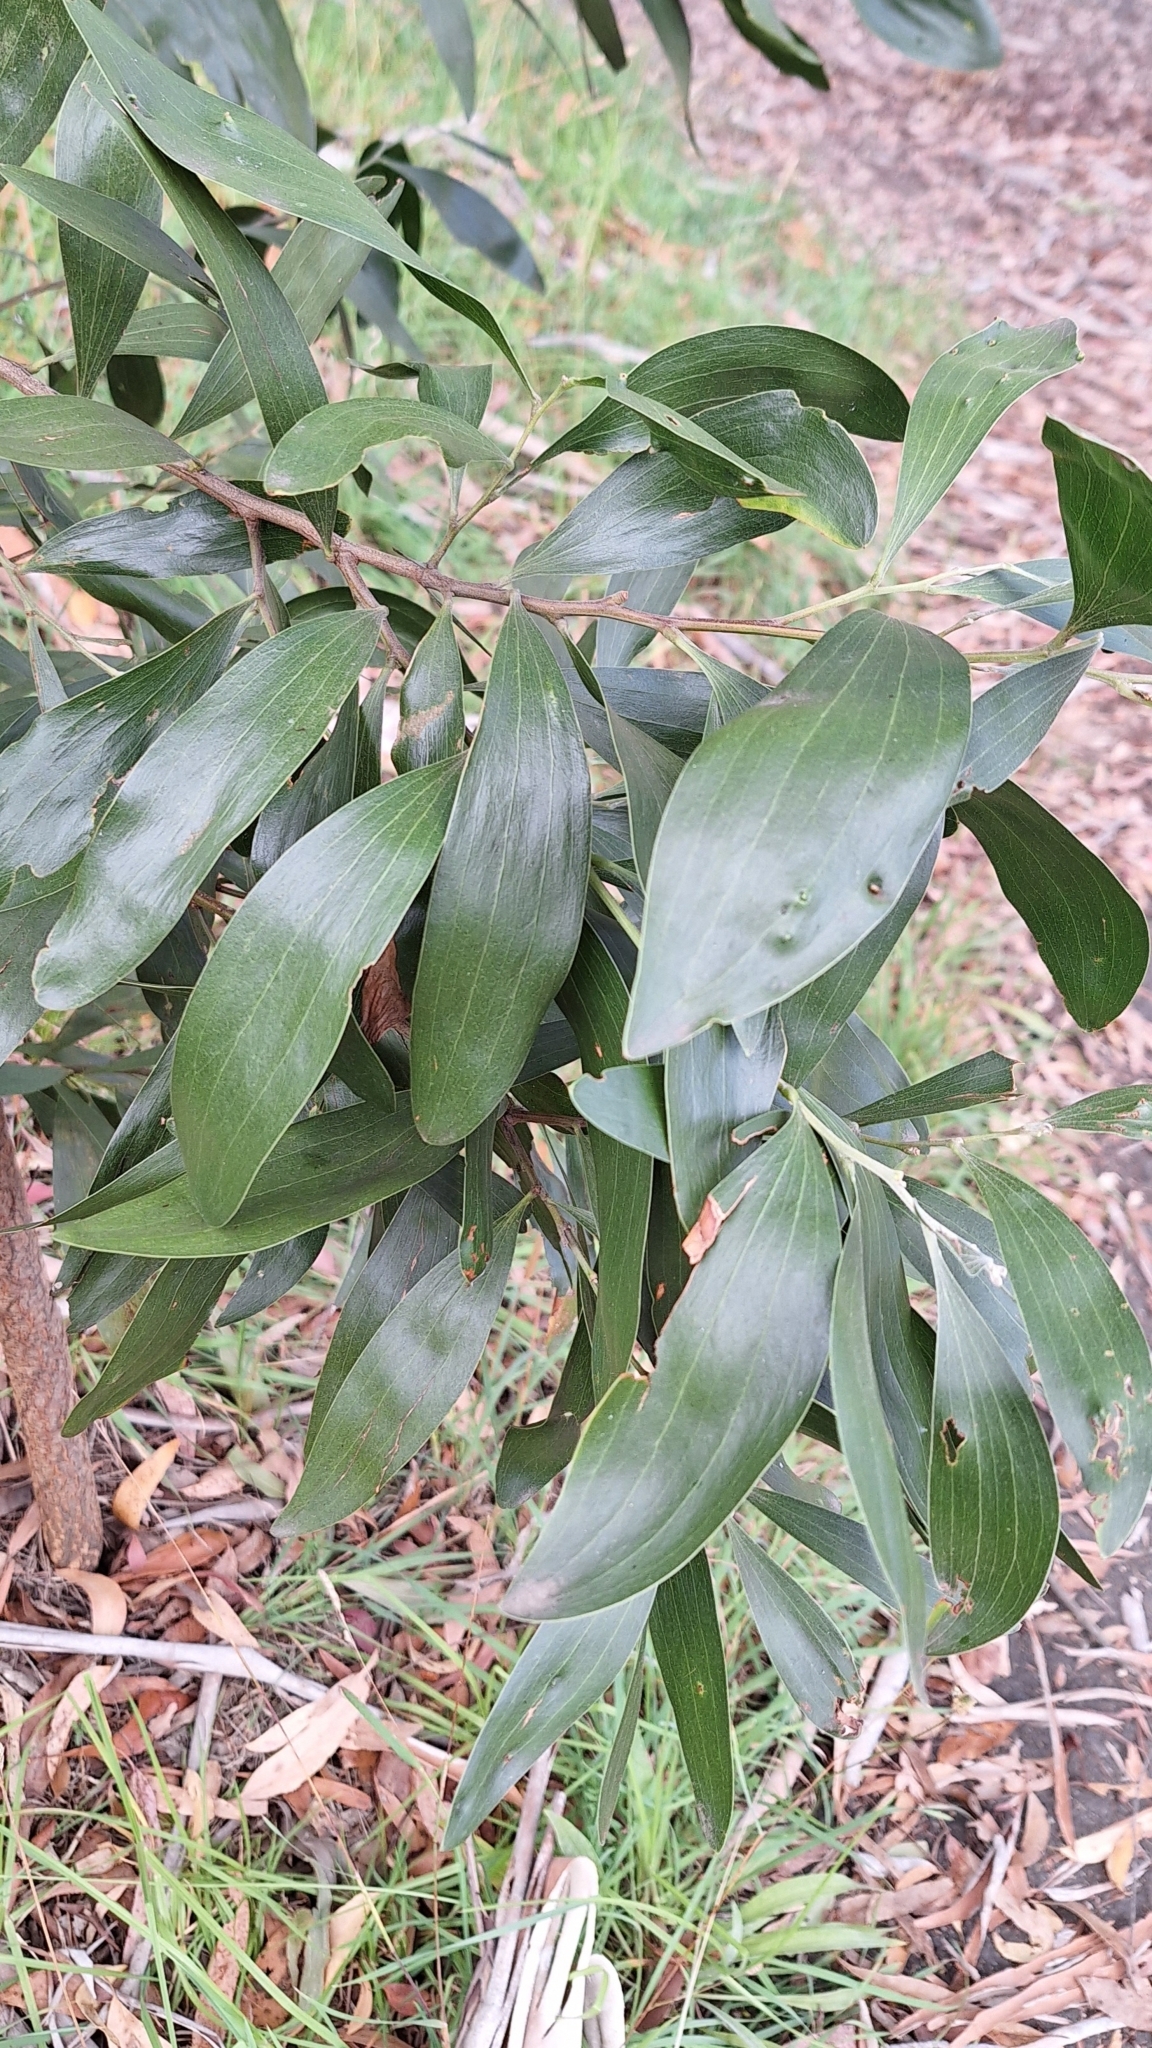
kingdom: Plantae
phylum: Tracheophyta
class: Magnoliopsida
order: Fabales
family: Fabaceae
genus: Acacia
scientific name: Acacia melanoxylon
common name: Blackwood
